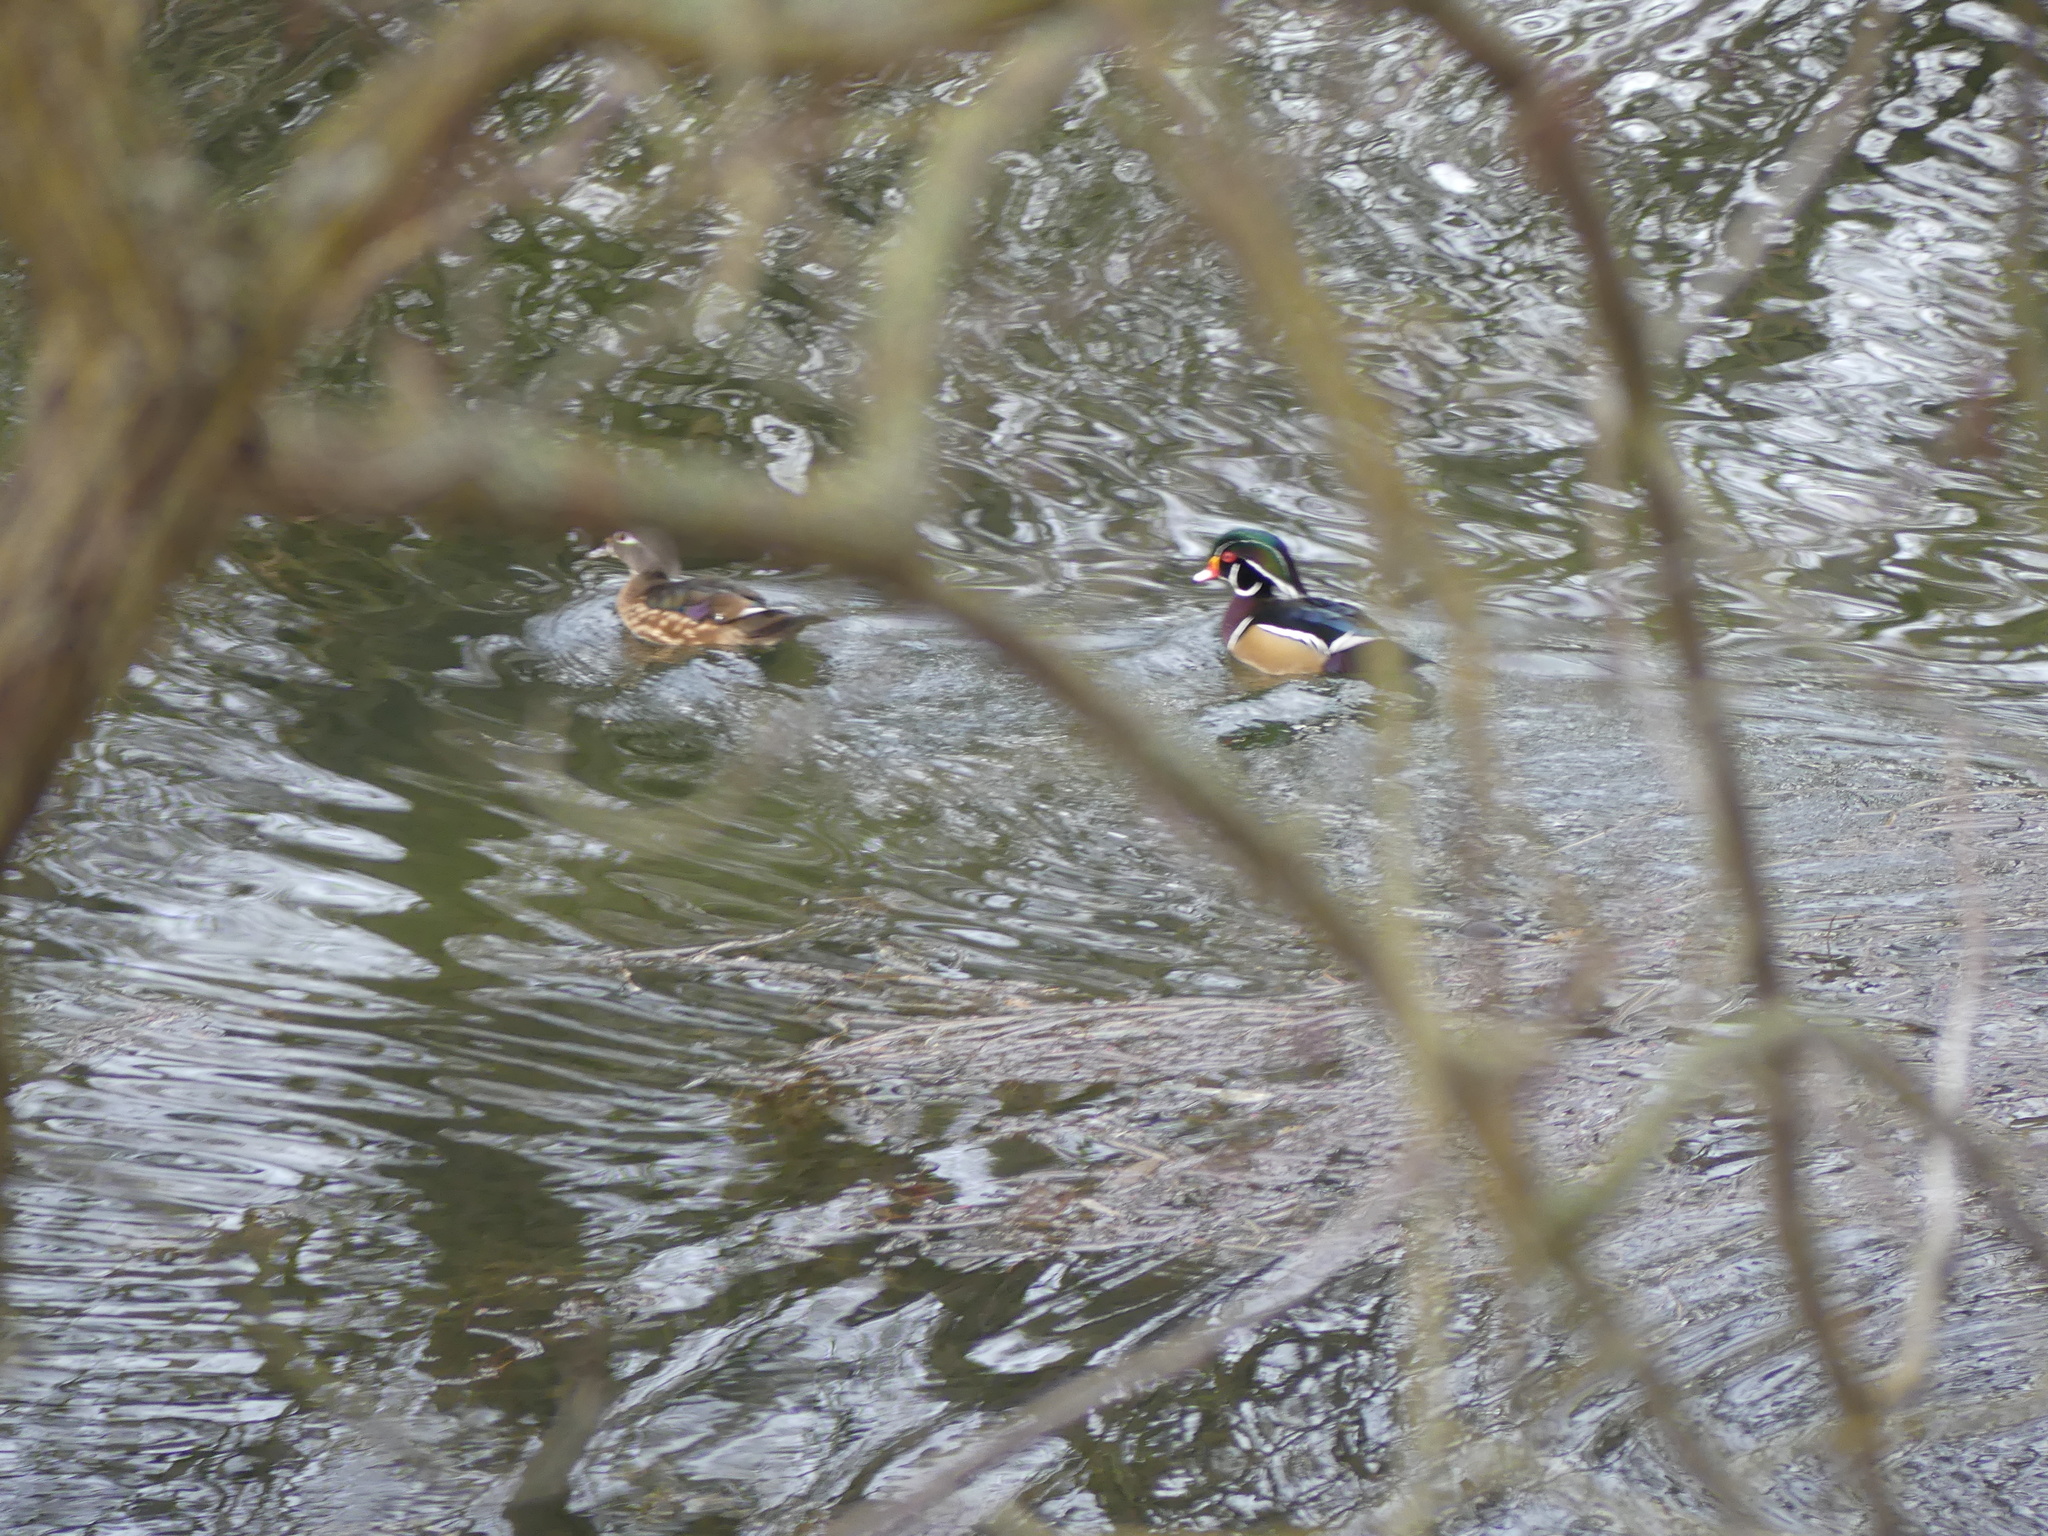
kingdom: Animalia
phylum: Chordata
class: Aves
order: Anseriformes
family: Anatidae
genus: Aix
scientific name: Aix sponsa
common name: Wood duck
